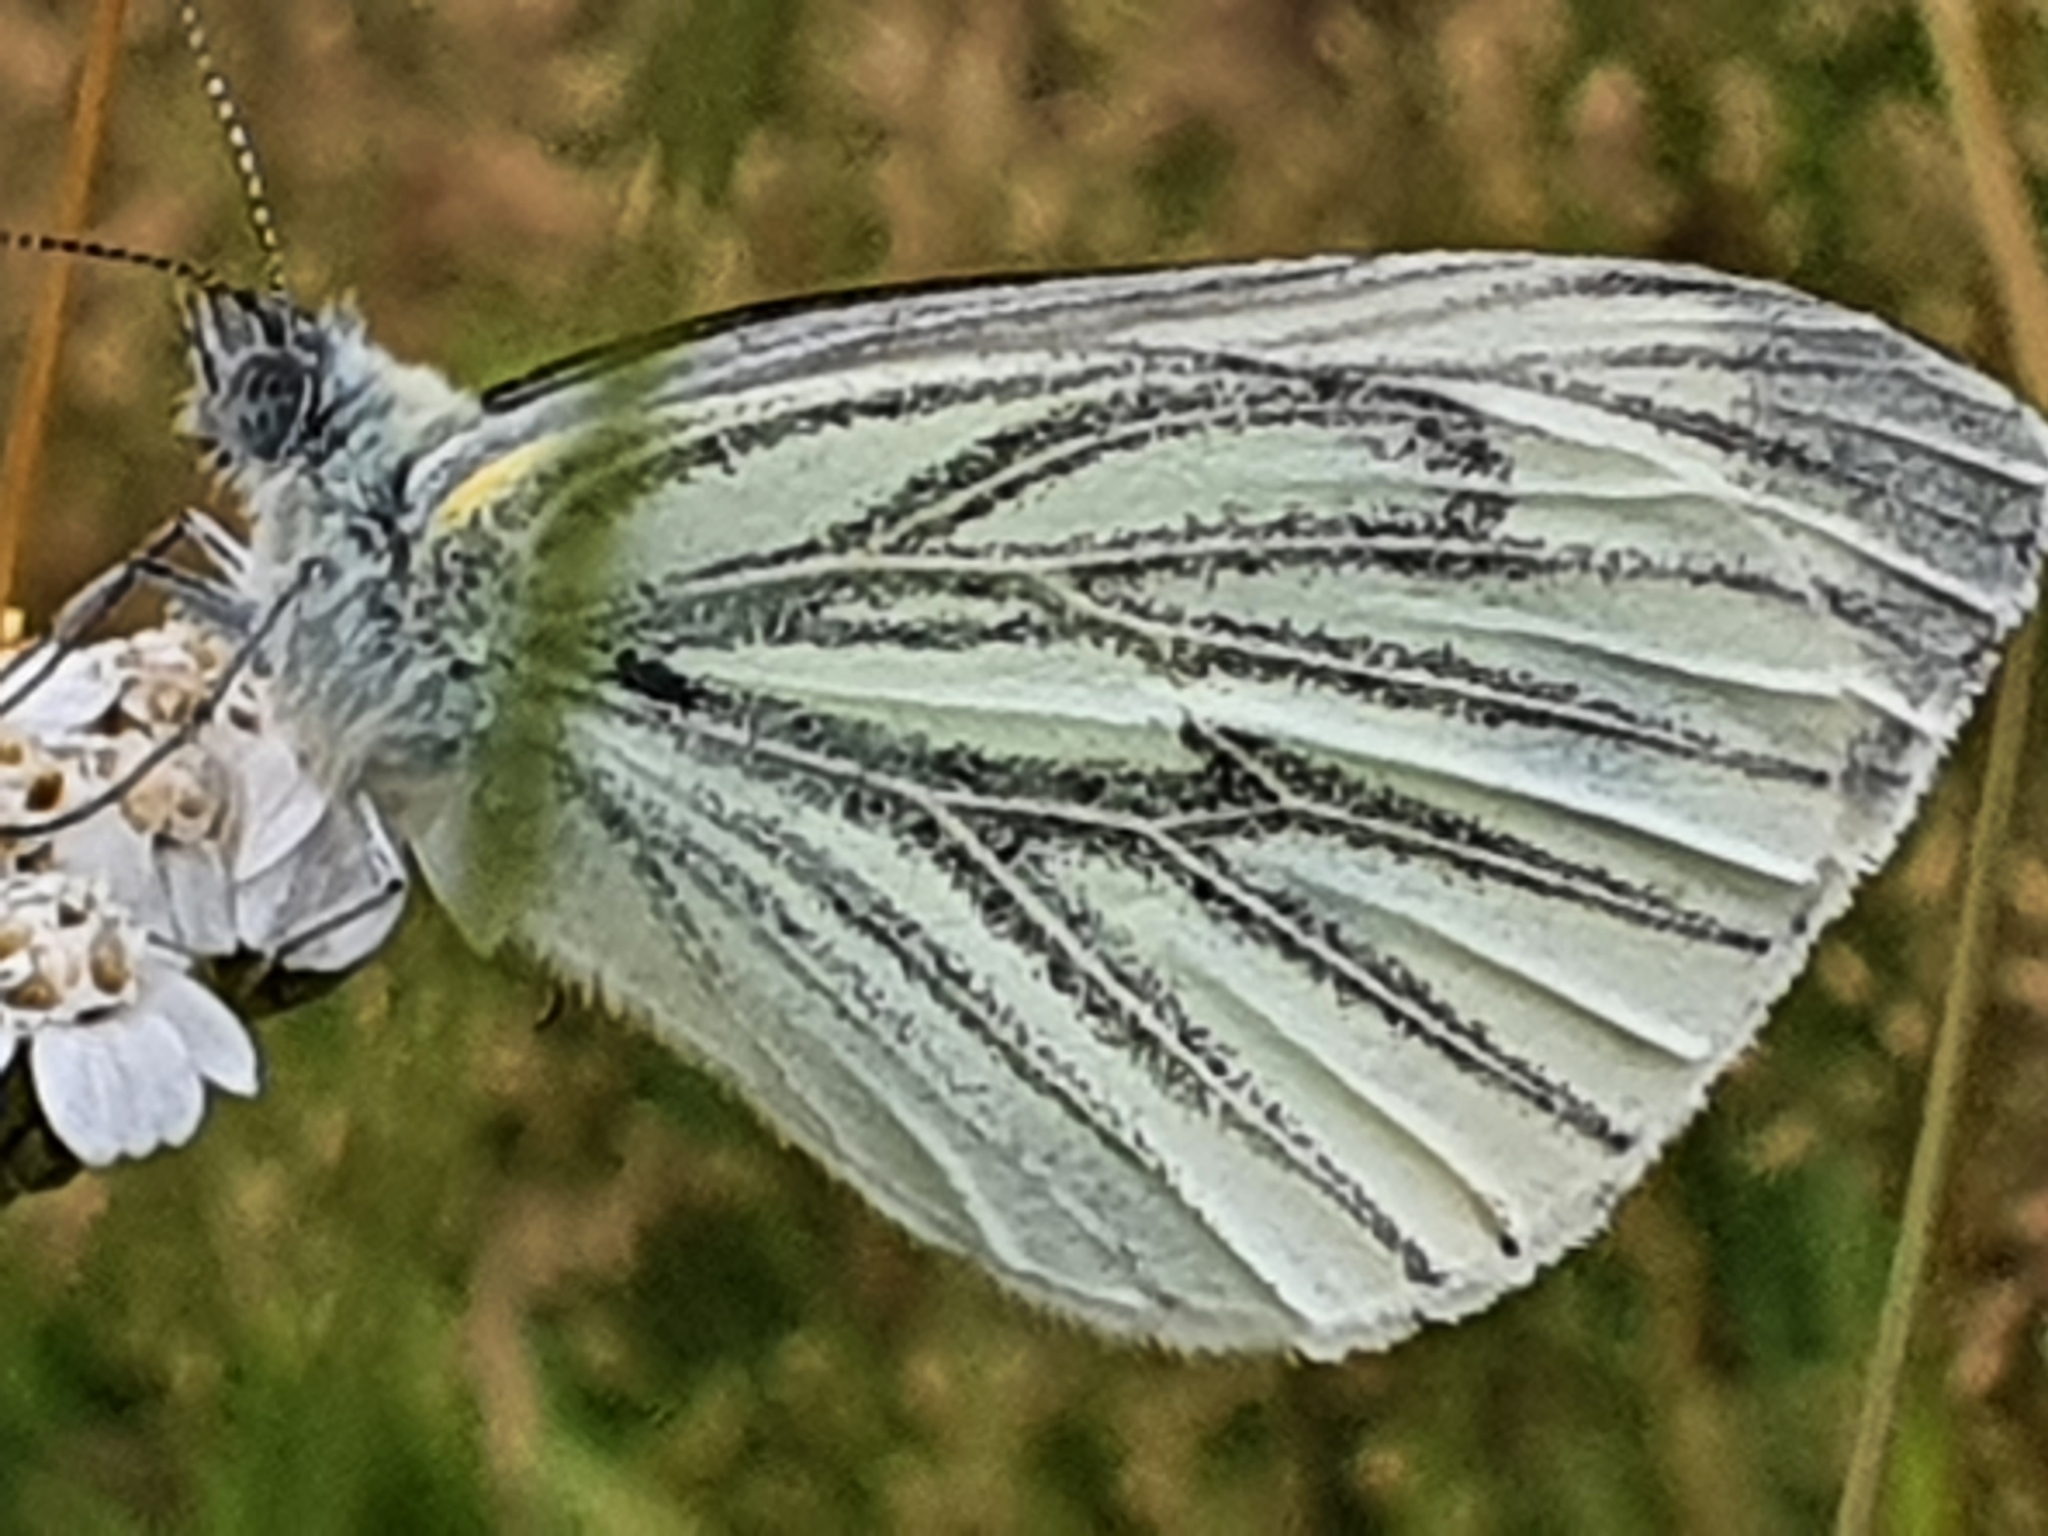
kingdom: Animalia
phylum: Arthropoda
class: Insecta
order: Lepidoptera
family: Pieridae
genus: Pieris
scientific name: Pieris napi
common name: Green-veined white
